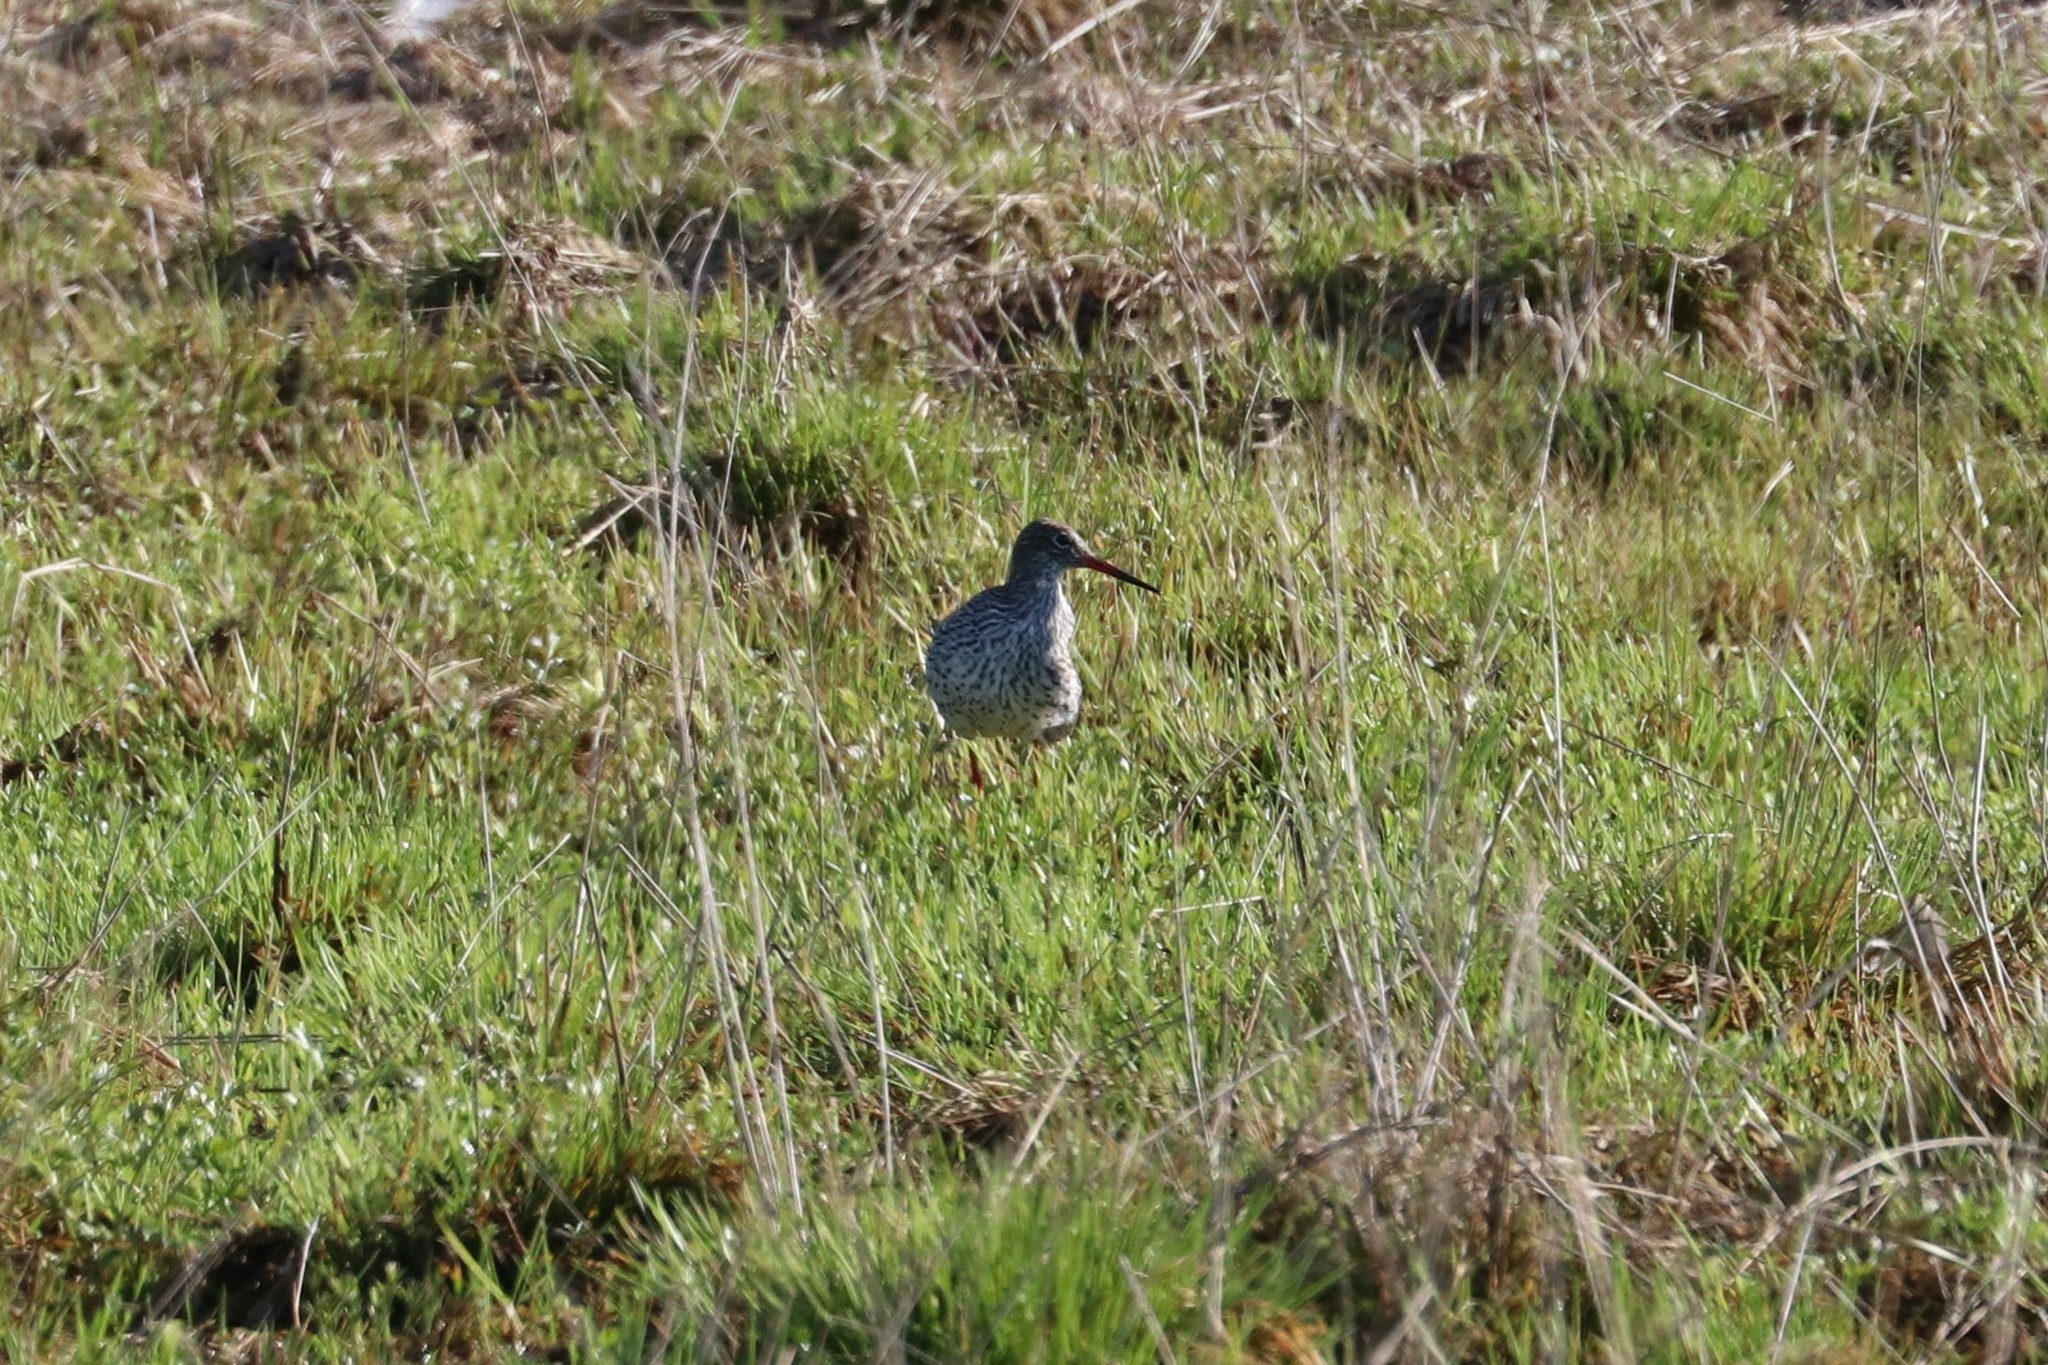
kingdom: Animalia
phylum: Chordata
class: Aves
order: Charadriiformes
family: Scolopacidae
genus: Tringa
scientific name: Tringa totanus
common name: Common redshank
